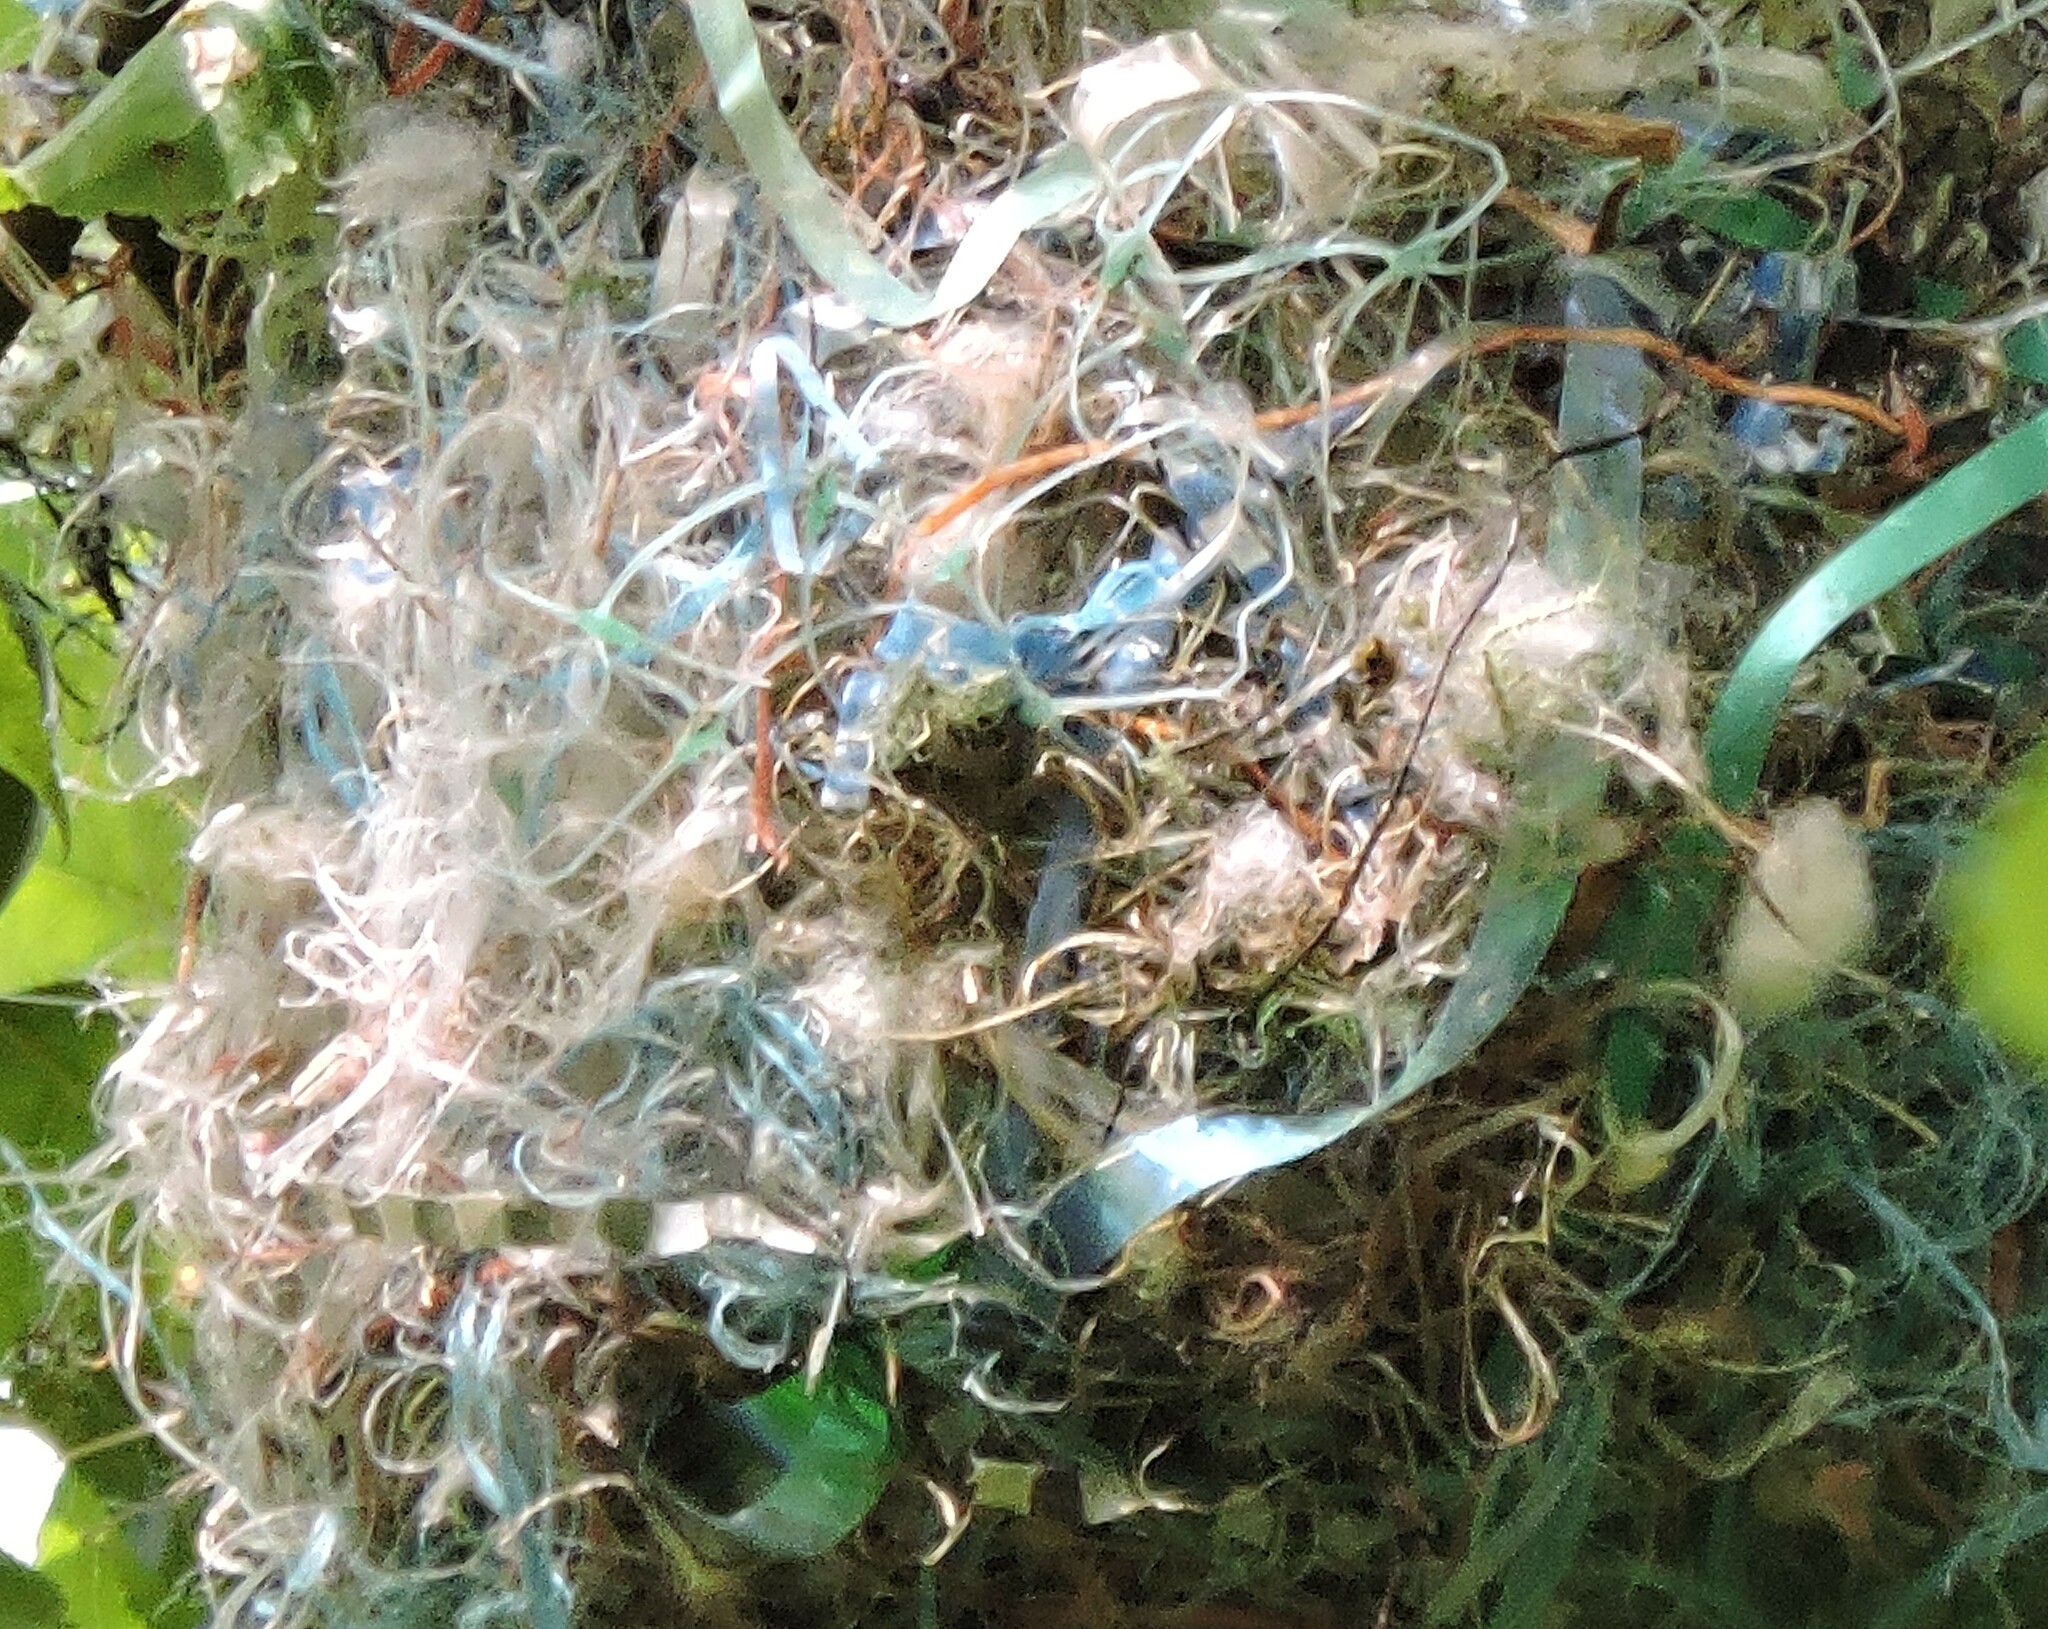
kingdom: Animalia
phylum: Chordata
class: Aves
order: Passeriformes
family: Icteridae
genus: Icterus
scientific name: Icterus bullockii
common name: Bullock's oriole
